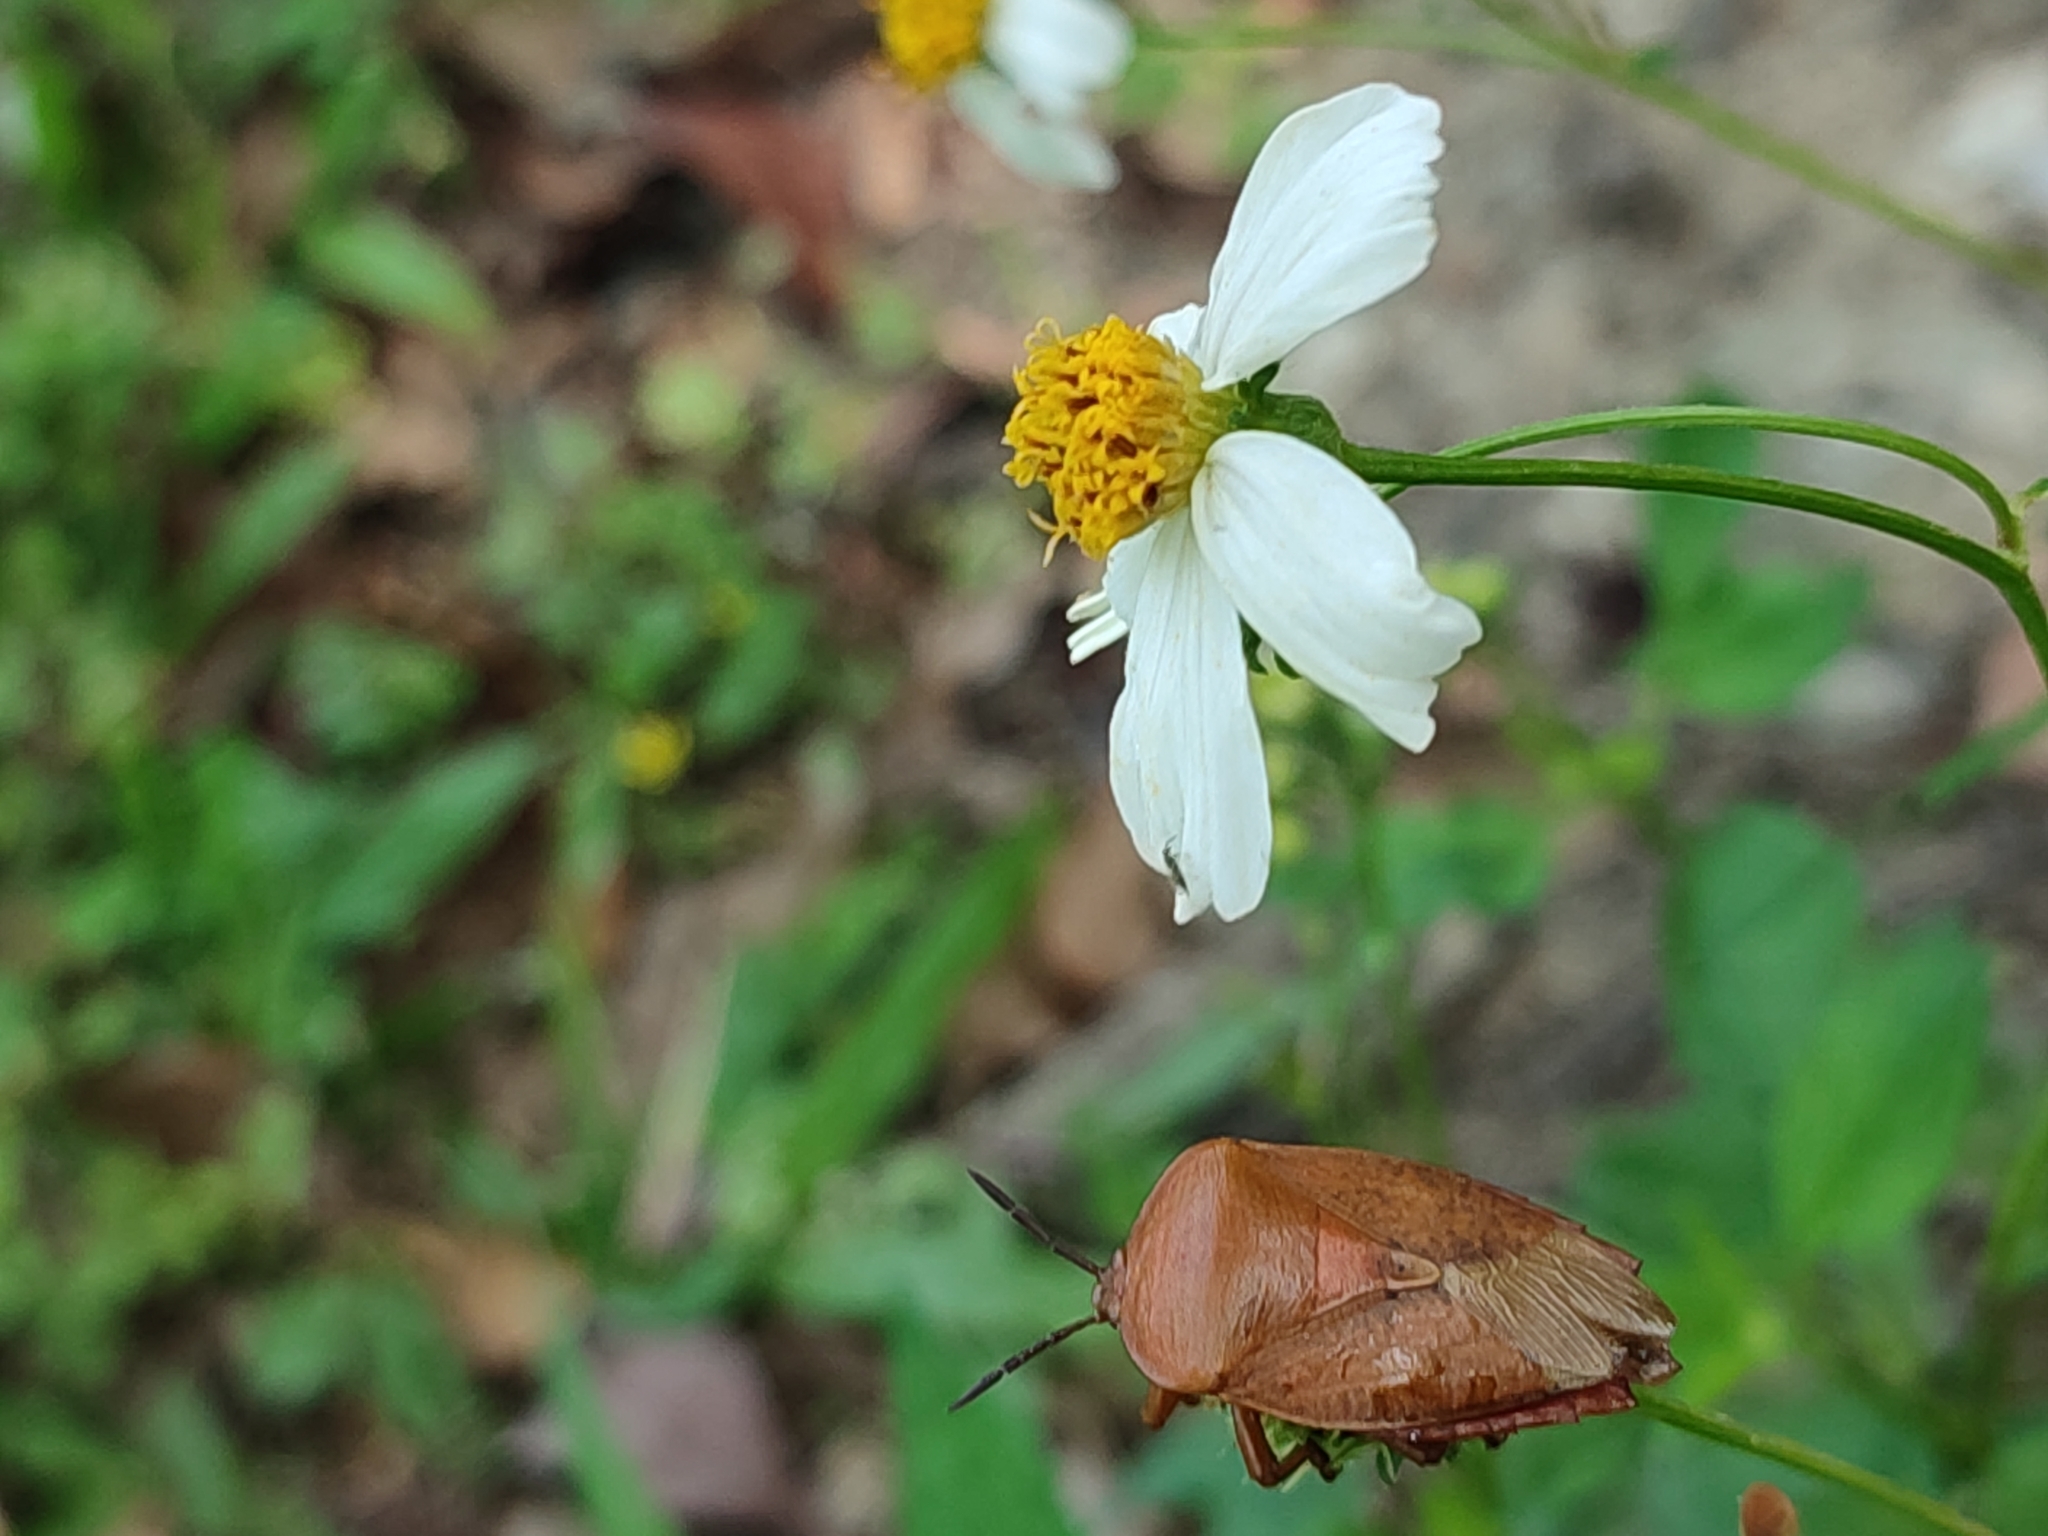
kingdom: Animalia
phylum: Arthropoda
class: Insecta
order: Hemiptera
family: Tessaratomidae
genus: Tessaratoma
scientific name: Tessaratoma papillosa
